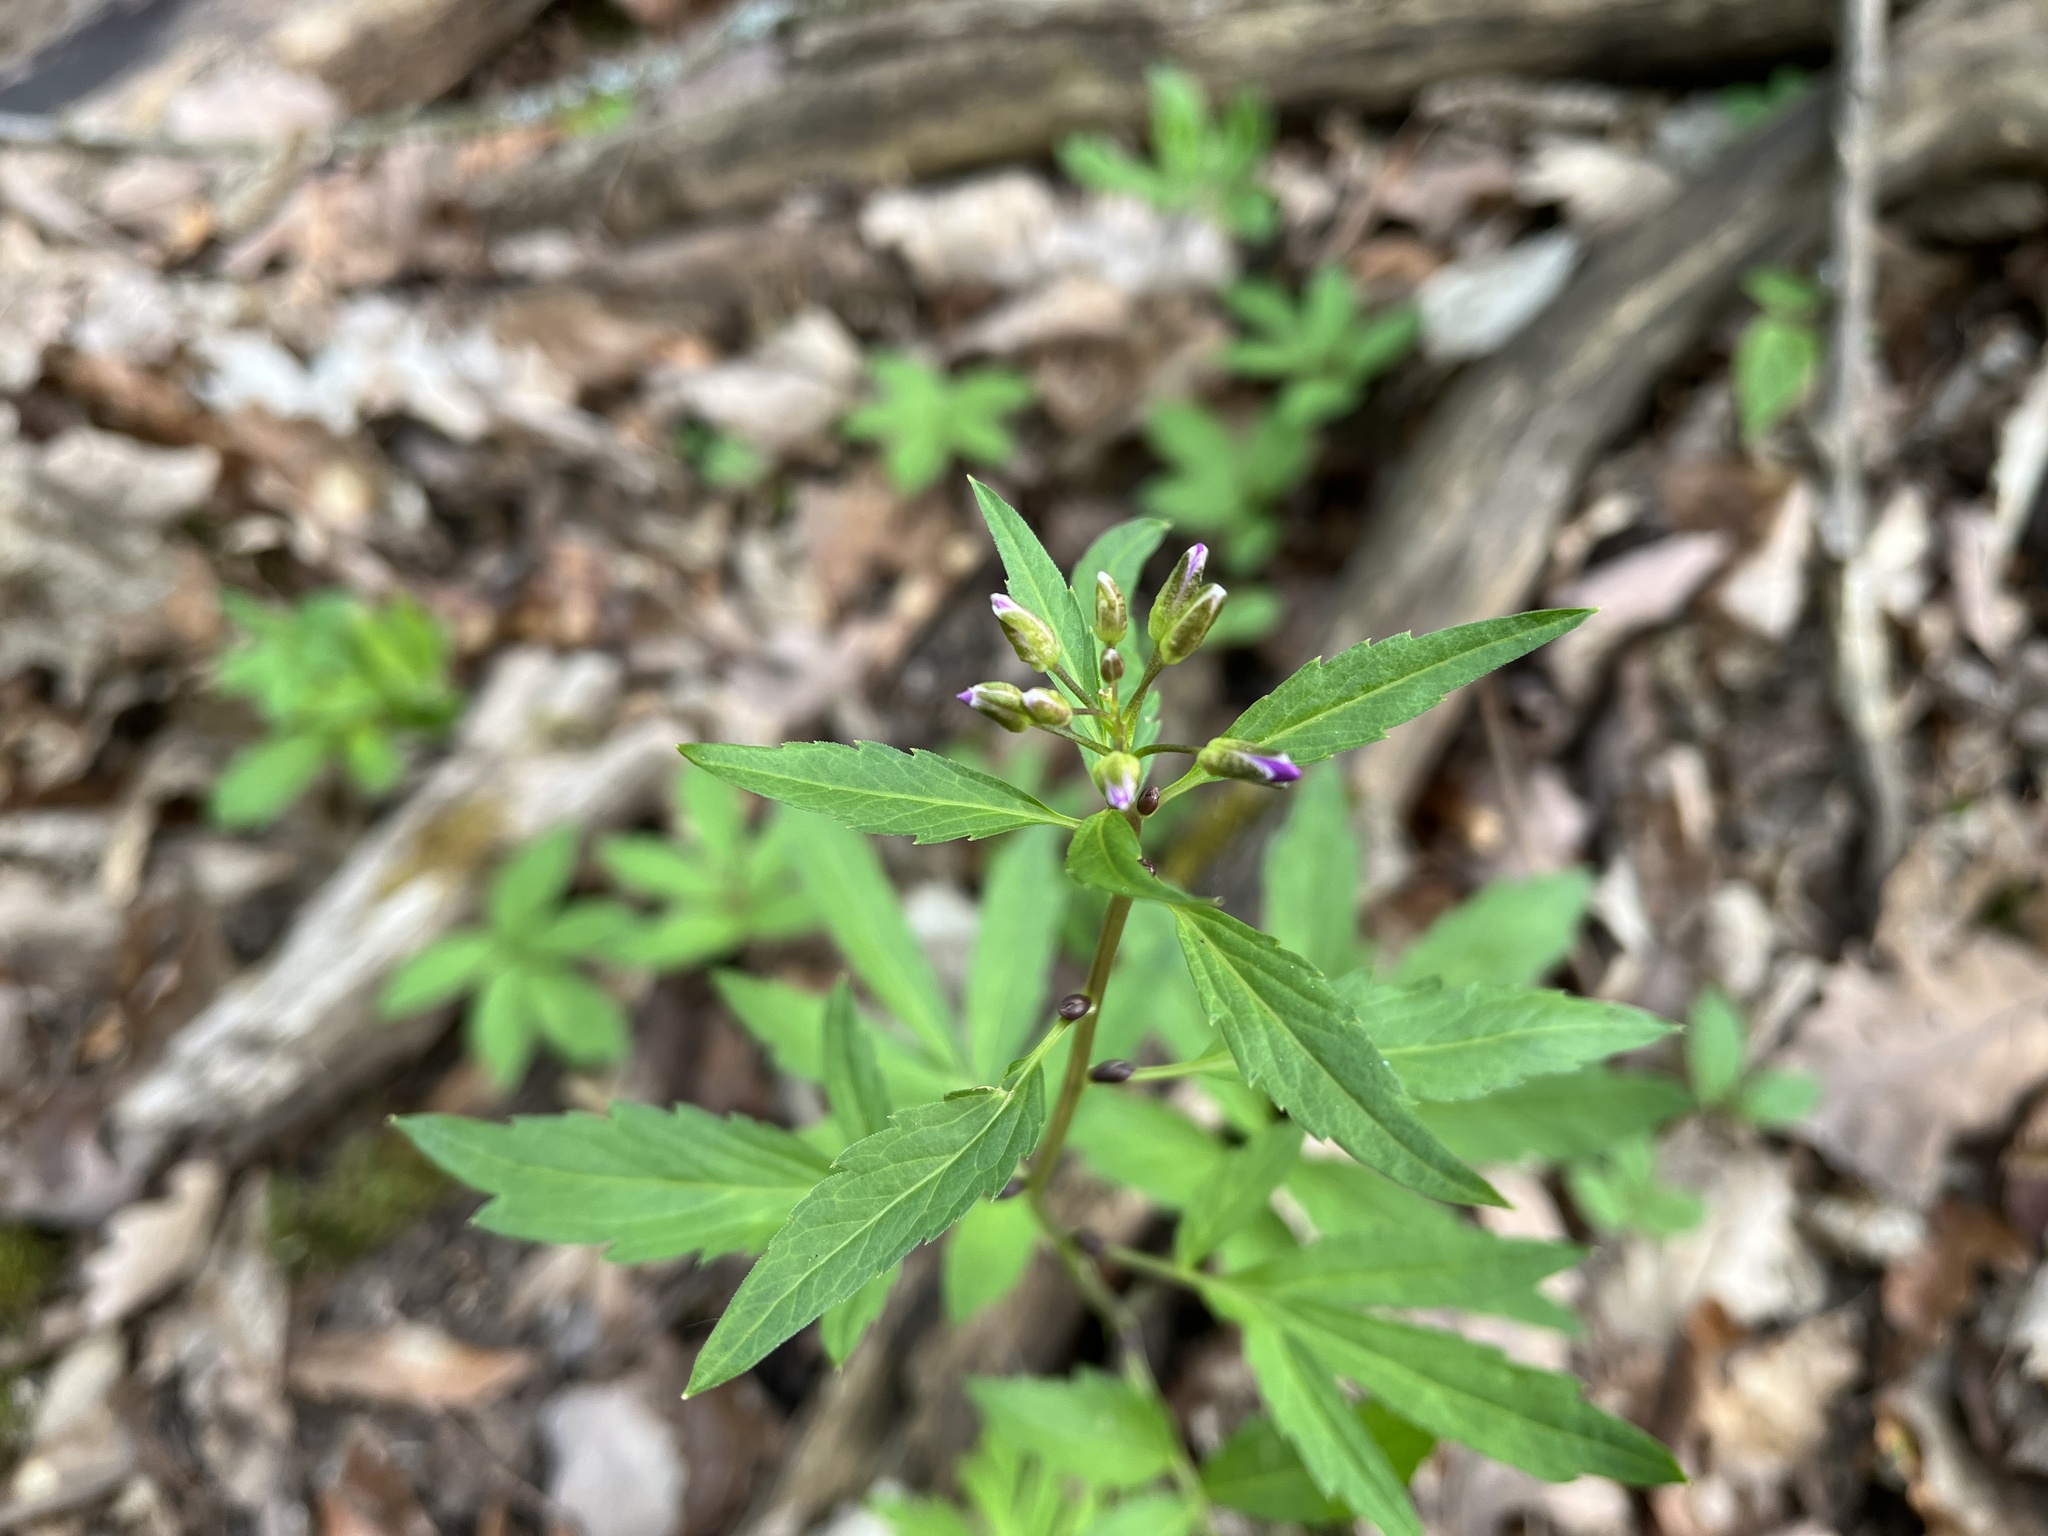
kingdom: Plantae
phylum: Tracheophyta
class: Magnoliopsida
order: Brassicales
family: Brassicaceae
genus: Cardamine
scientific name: Cardamine bulbifera
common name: Coralroot bittercress
